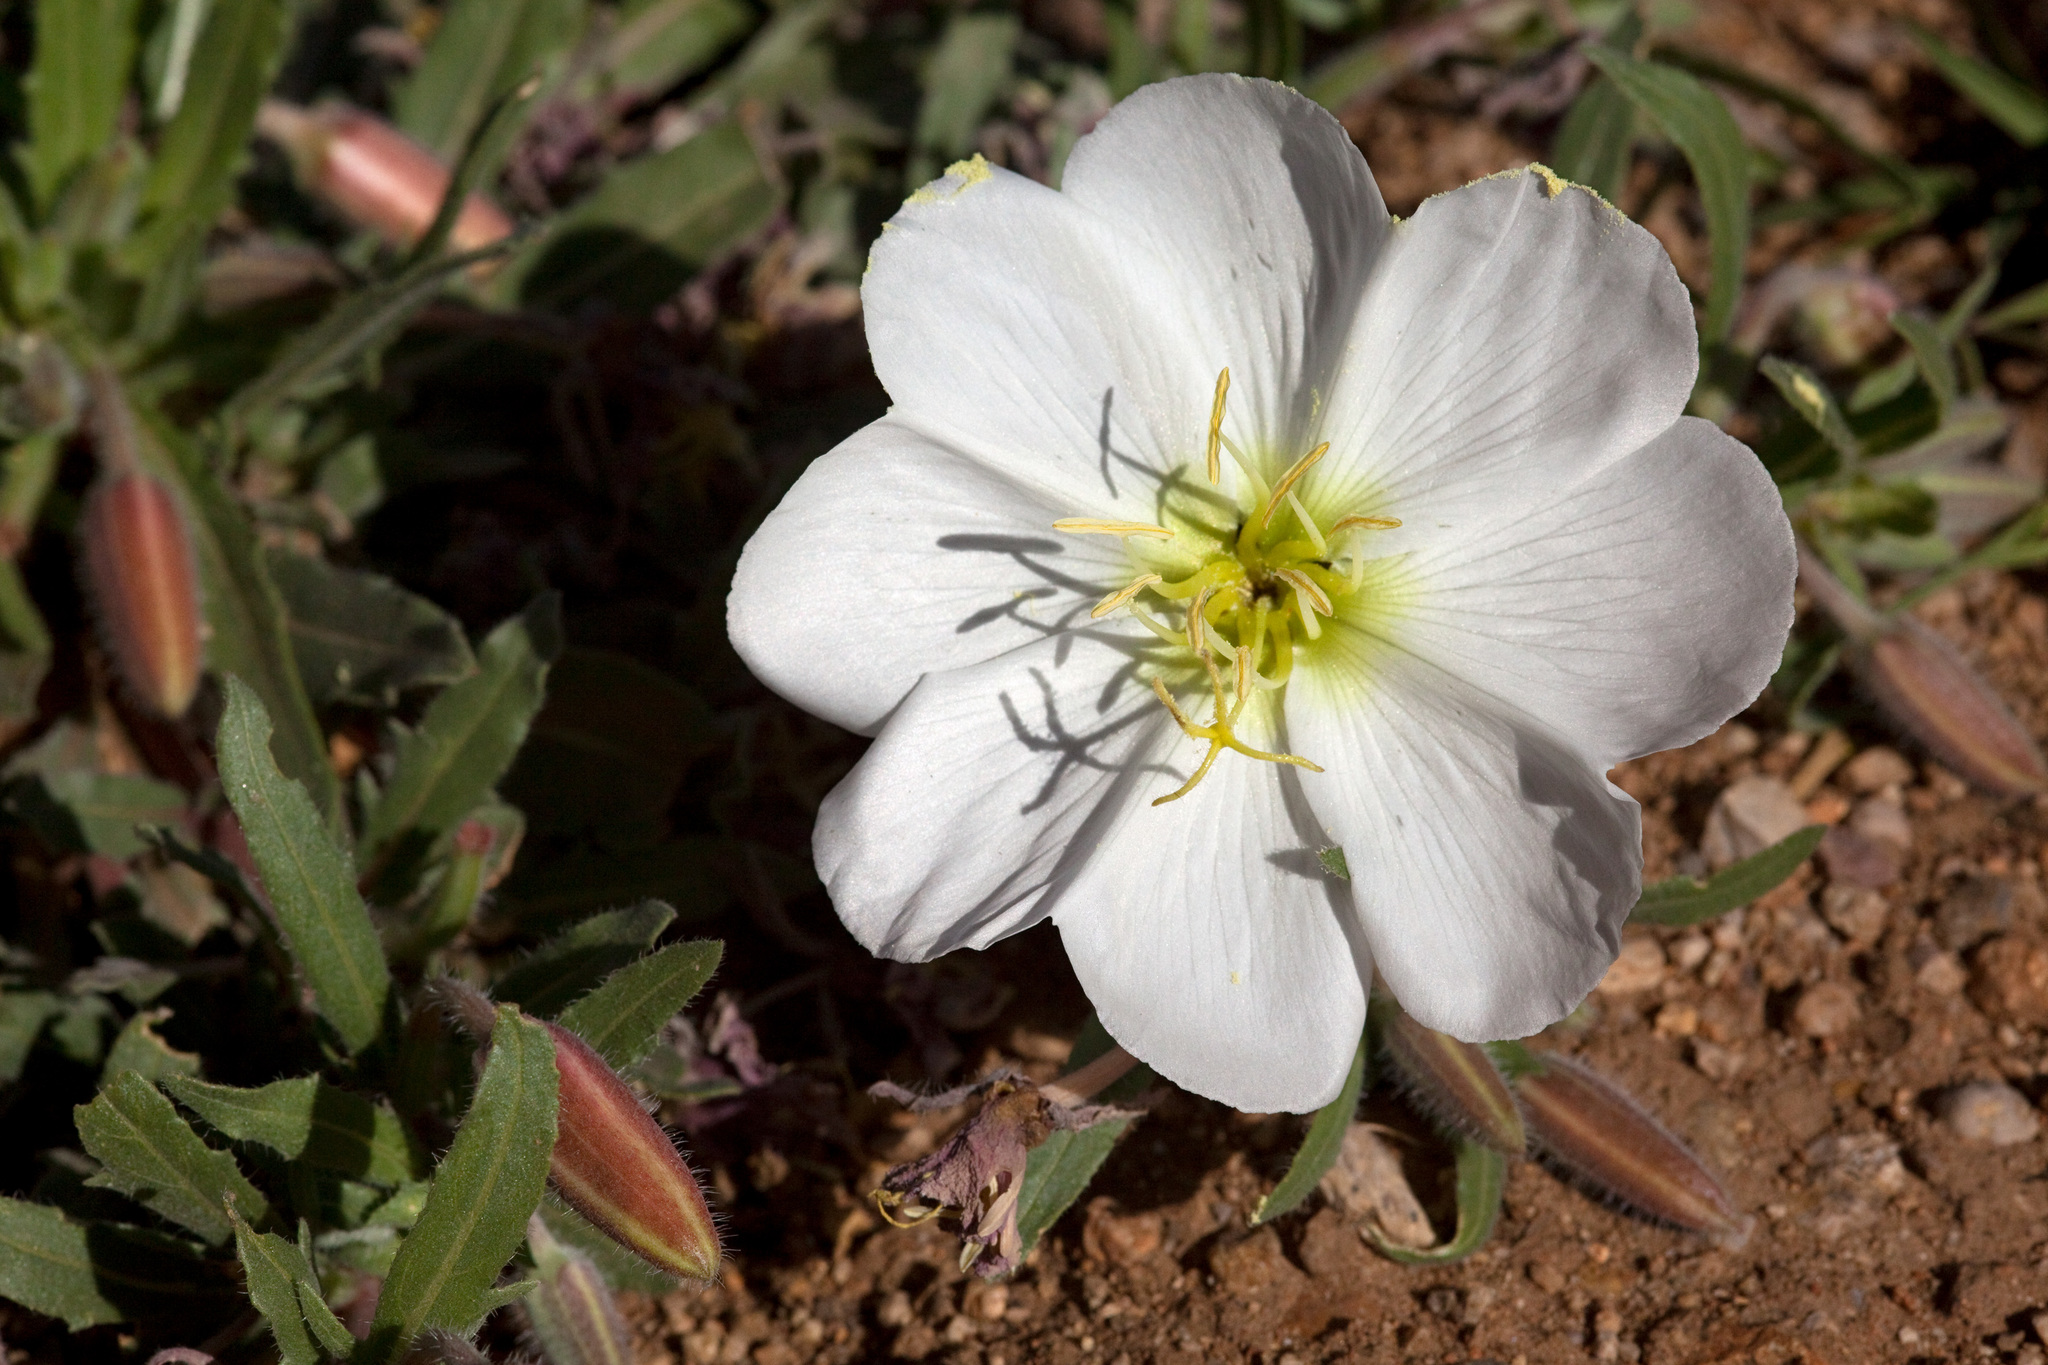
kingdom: Plantae
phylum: Tracheophyta
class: Magnoliopsida
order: Myrtales
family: Onagraceae
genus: Oenothera
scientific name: Oenothera albicaulis
